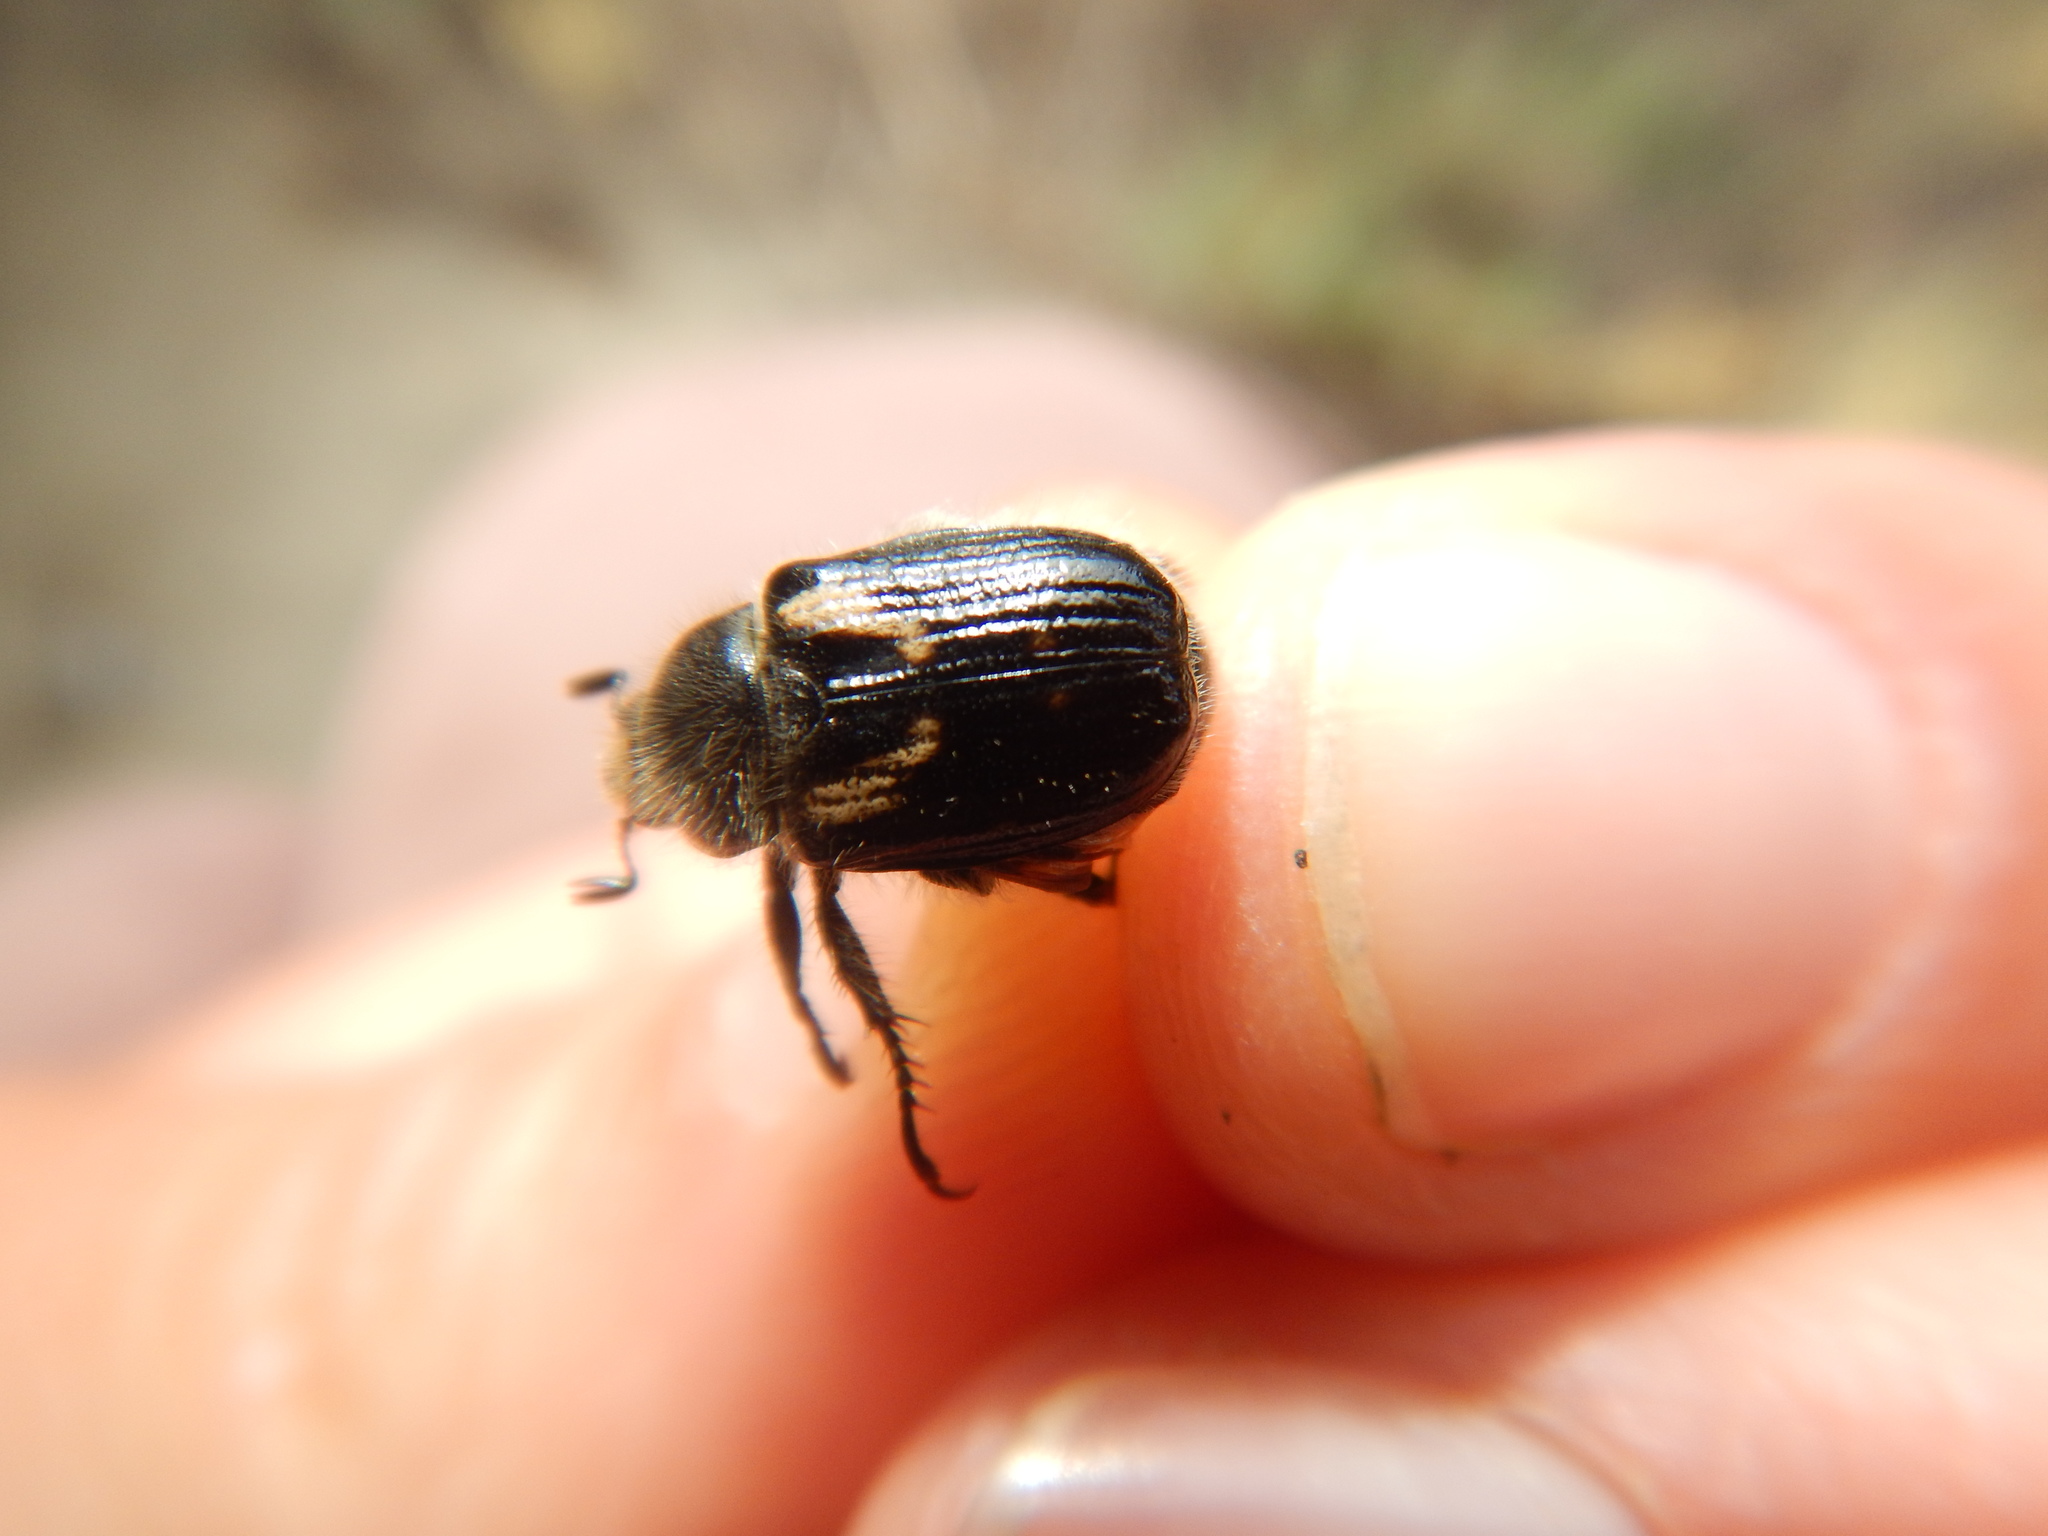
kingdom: Animalia
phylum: Arthropoda
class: Insecta
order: Coleoptera
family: Scarabaeidae
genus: Anisoplia
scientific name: Anisoplia remota
